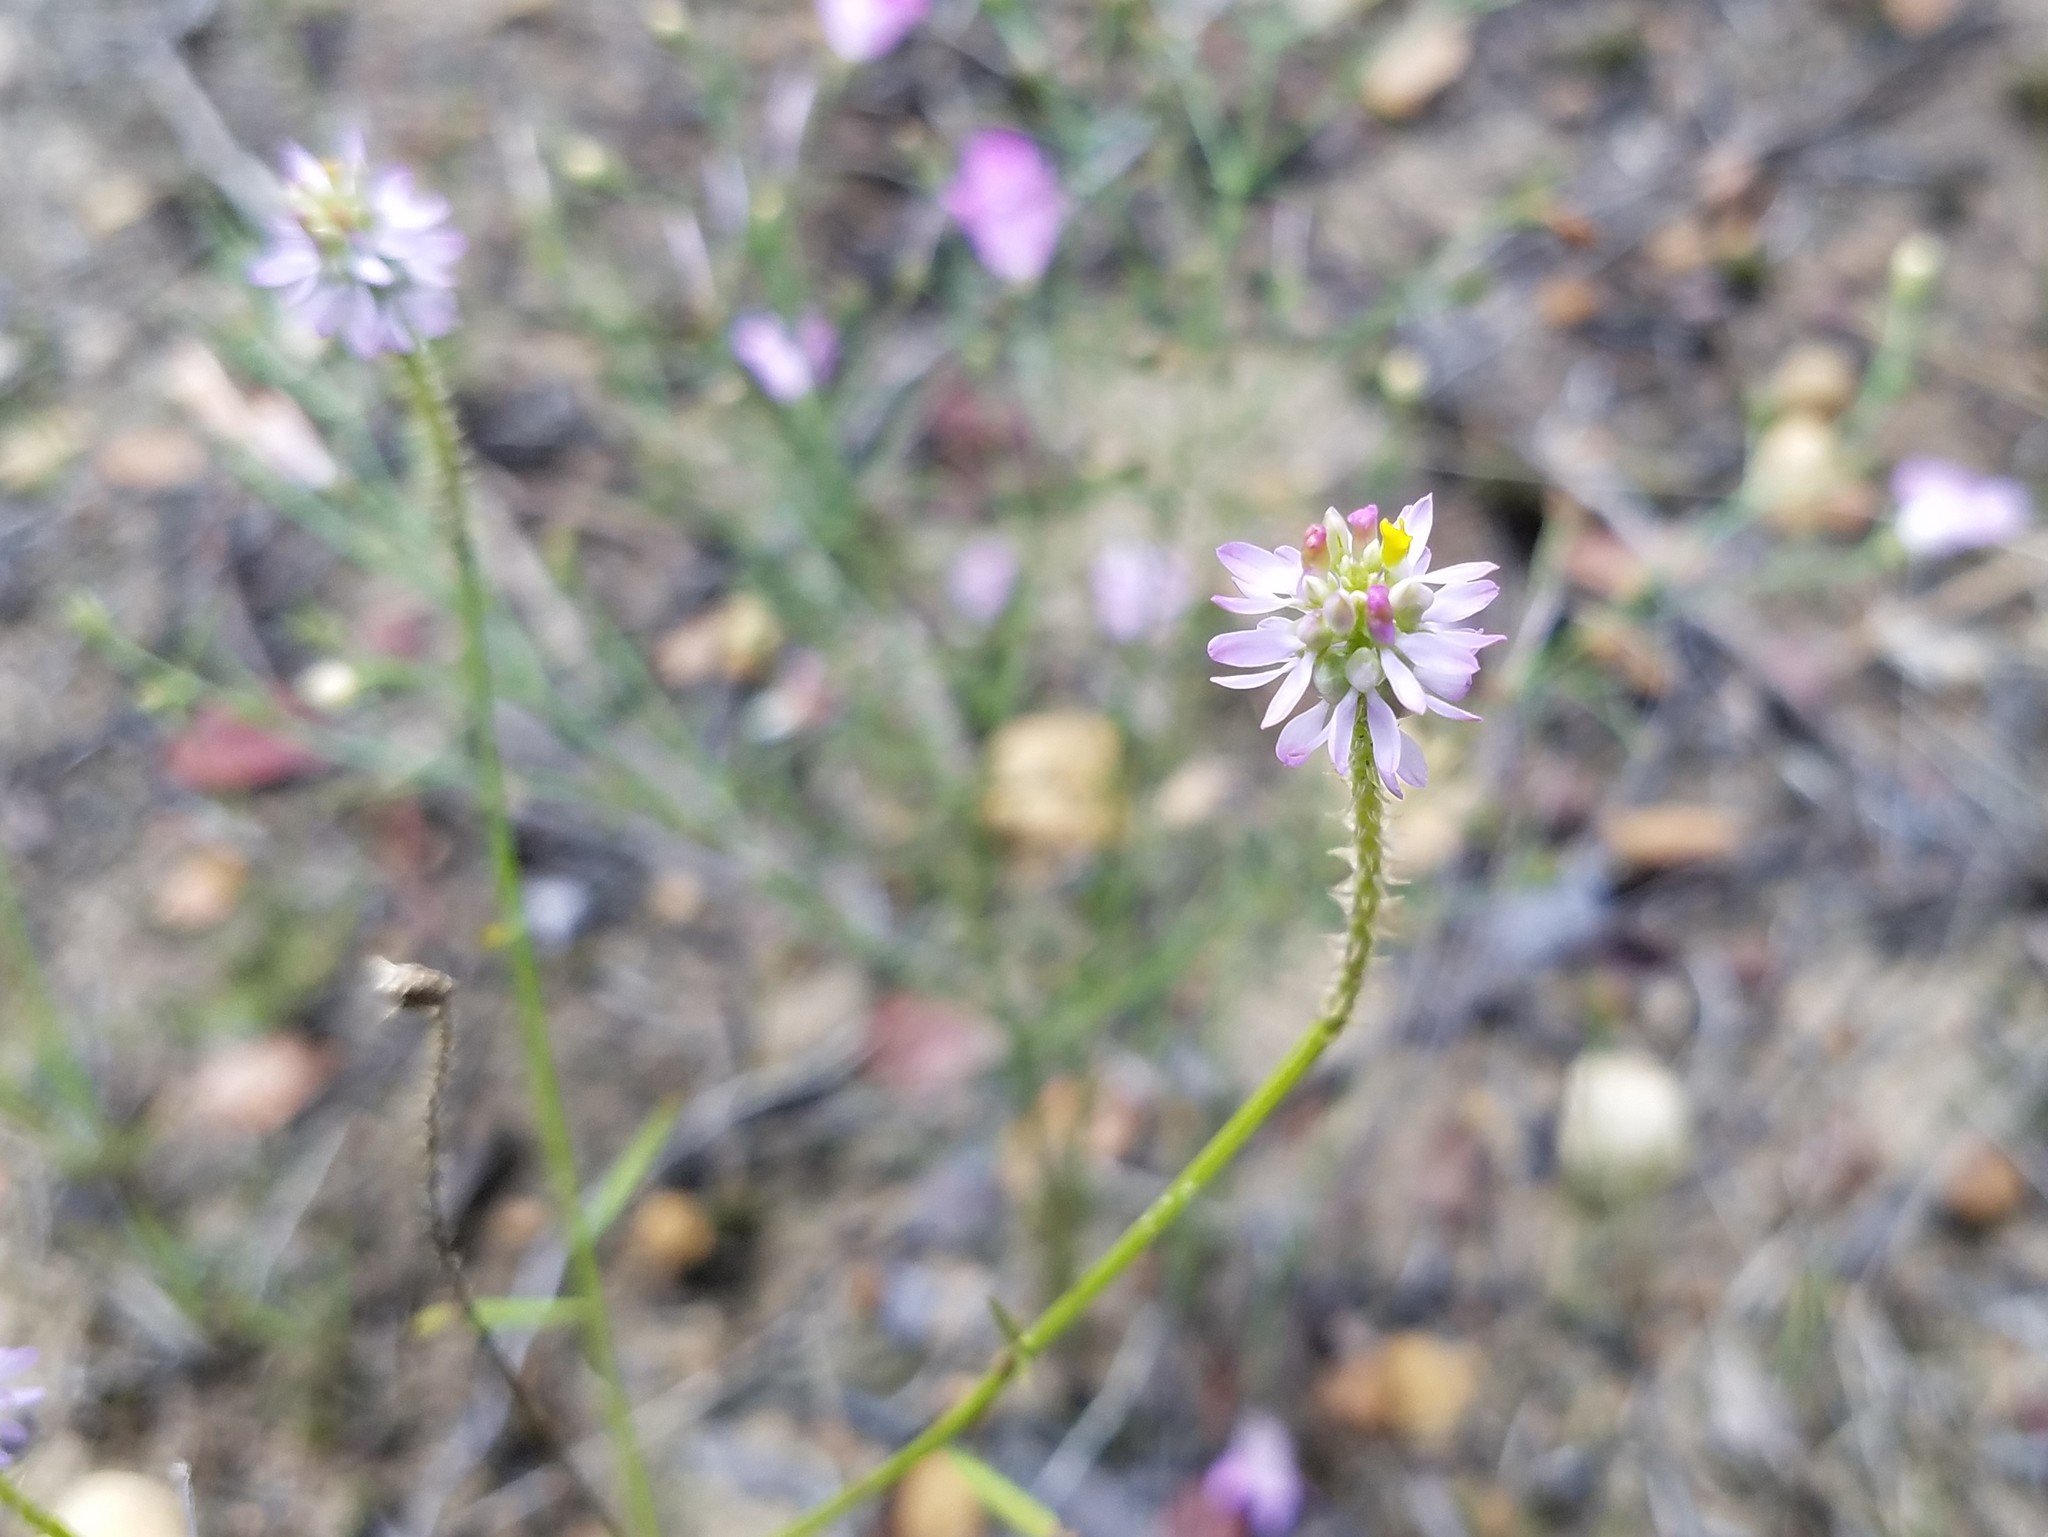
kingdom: Plantae
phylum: Tracheophyta
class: Magnoliopsida
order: Fabales
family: Polygalaceae
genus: Polygala
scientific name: Polygala curtissii
